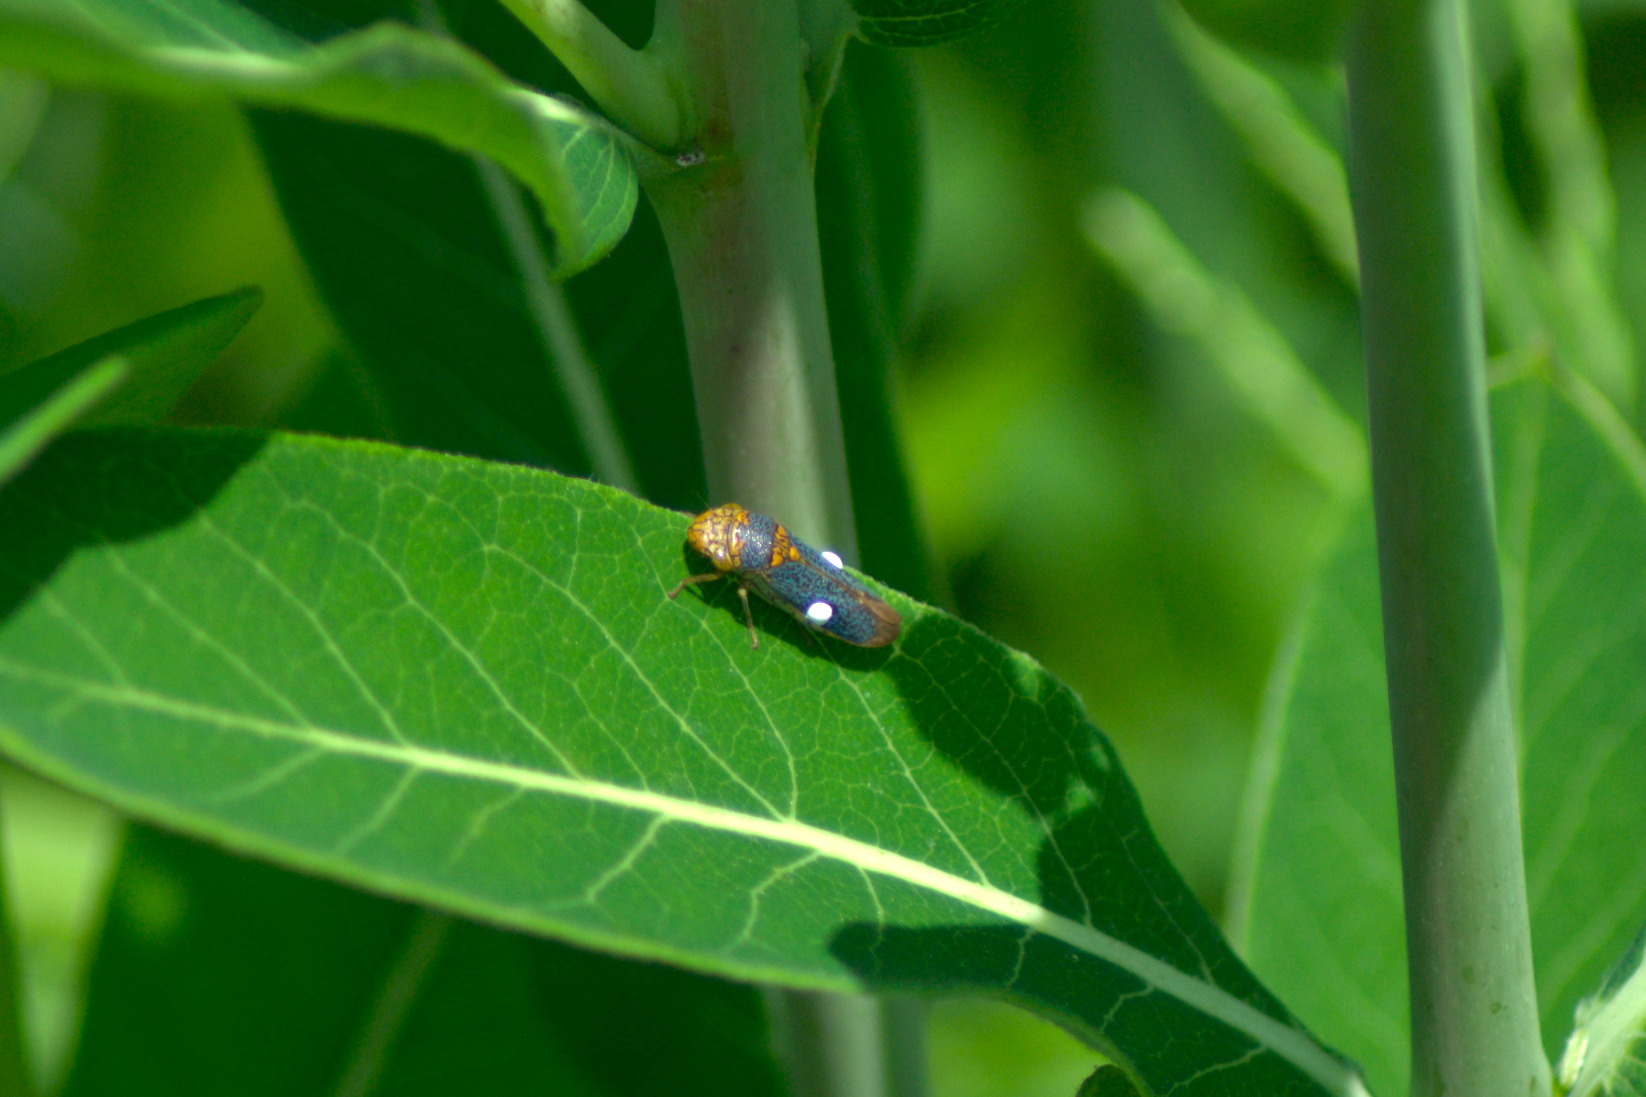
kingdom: Animalia
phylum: Arthropoda
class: Insecta
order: Hemiptera
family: Cicadellidae
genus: Oncometopia
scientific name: Oncometopia orbona
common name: Broad-headed sharpshooter
